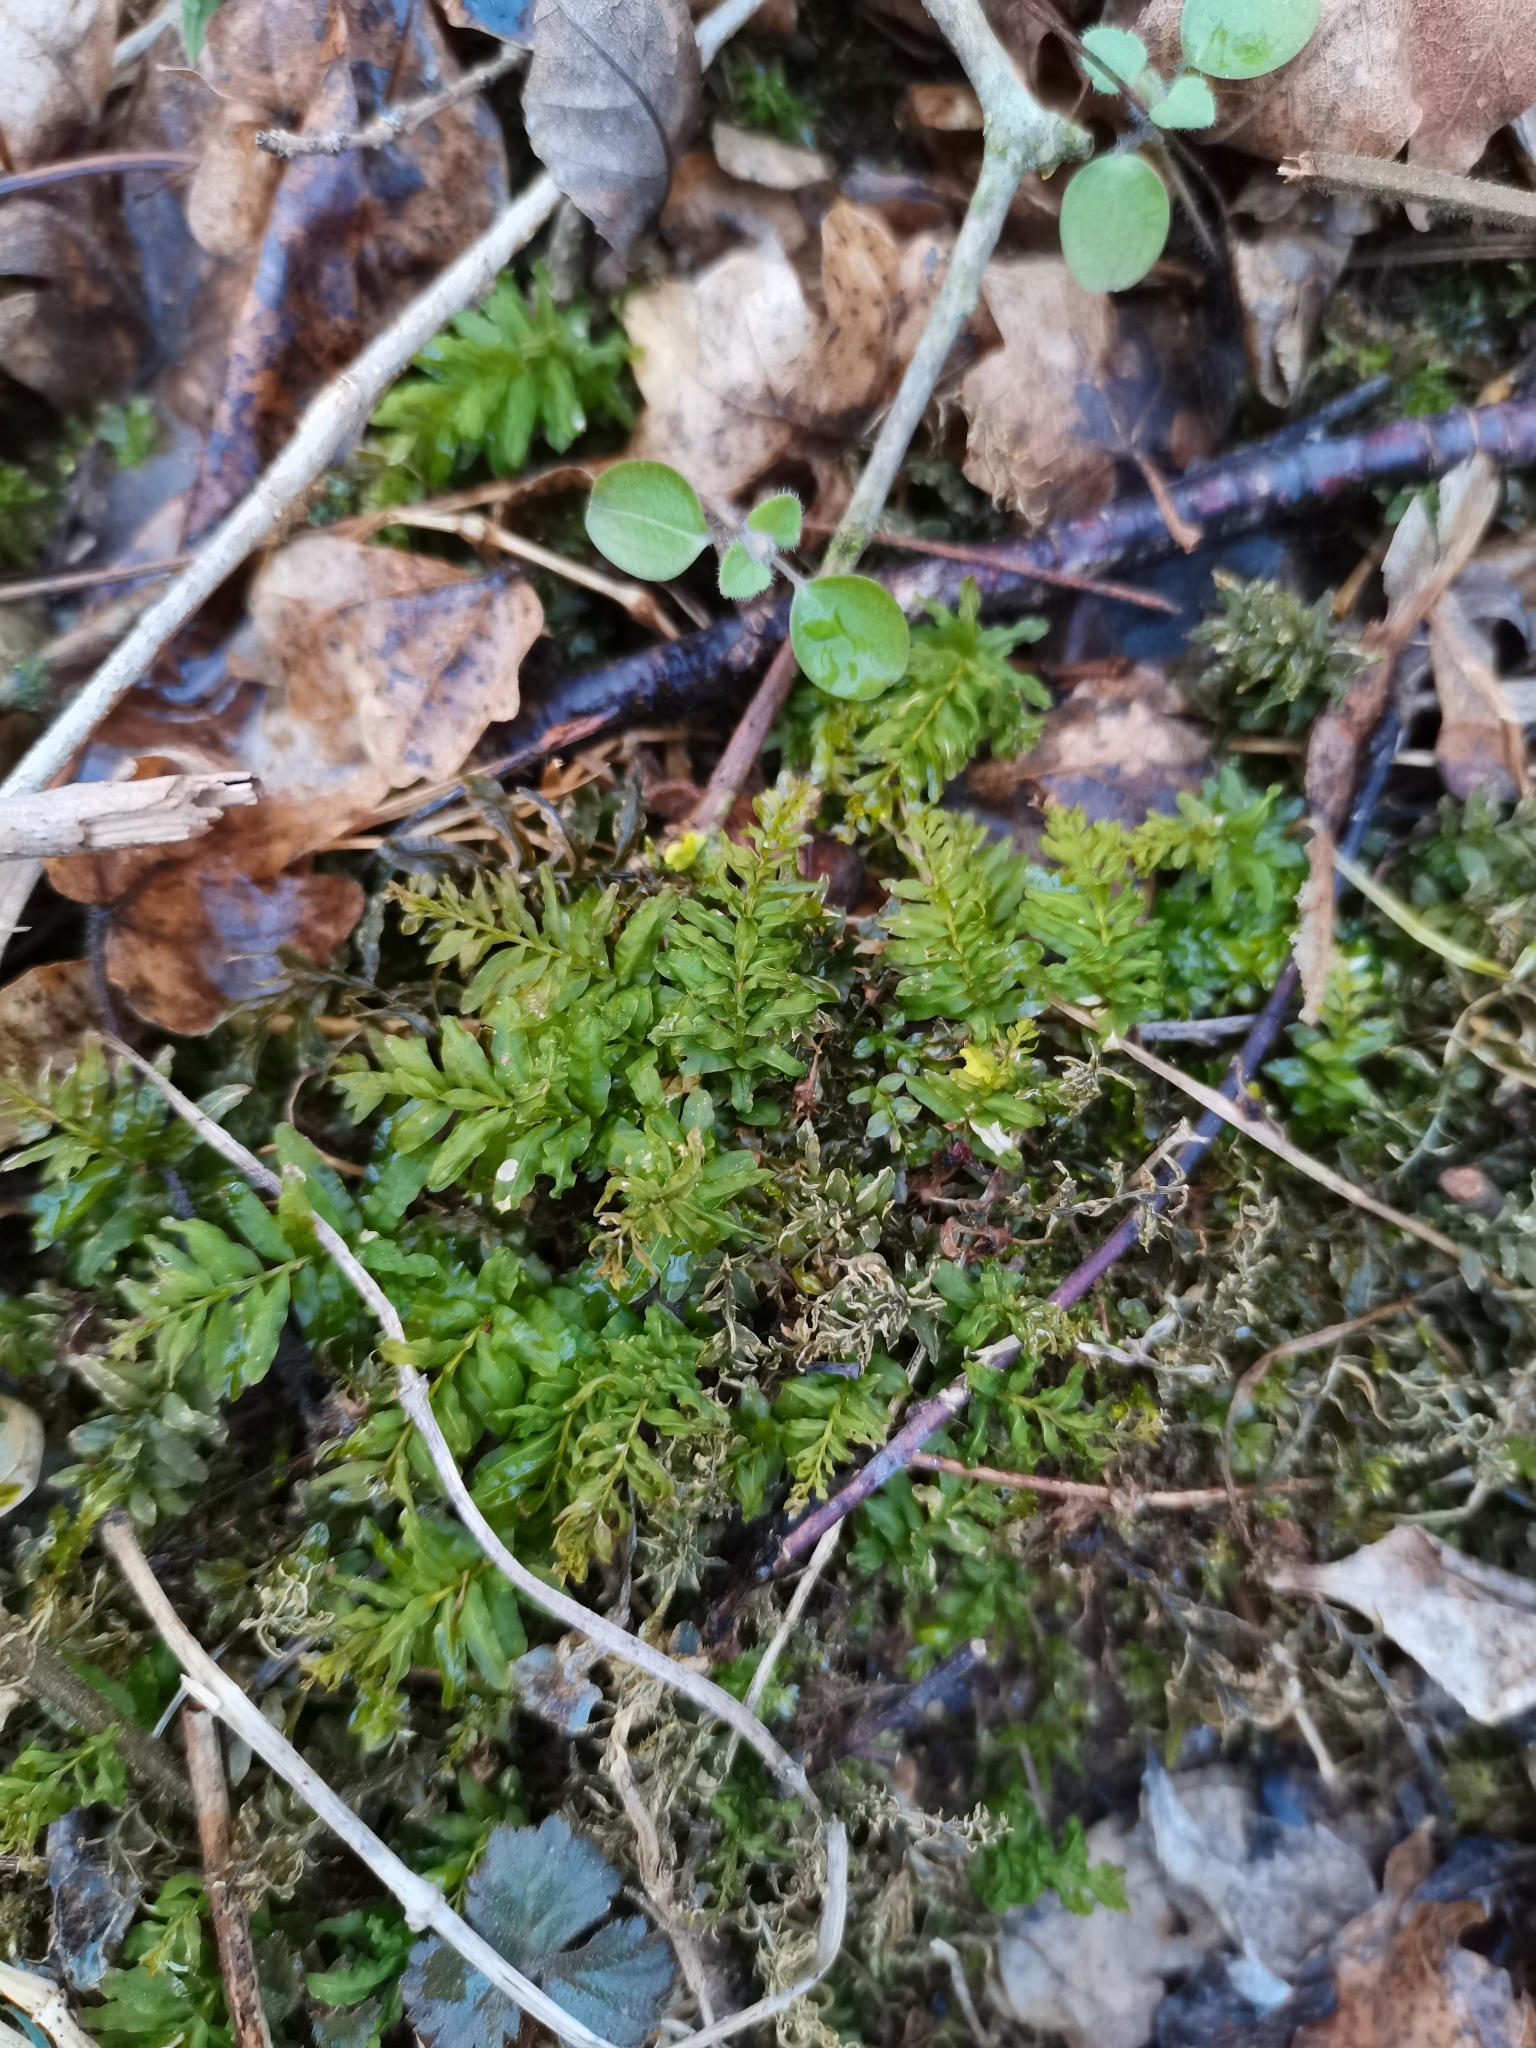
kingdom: Plantae
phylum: Bryophyta
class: Bryopsida
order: Bryales
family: Mniaceae
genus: Plagiomnium
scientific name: Plagiomnium undulatum
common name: Hart's-tongue thyme-moss
